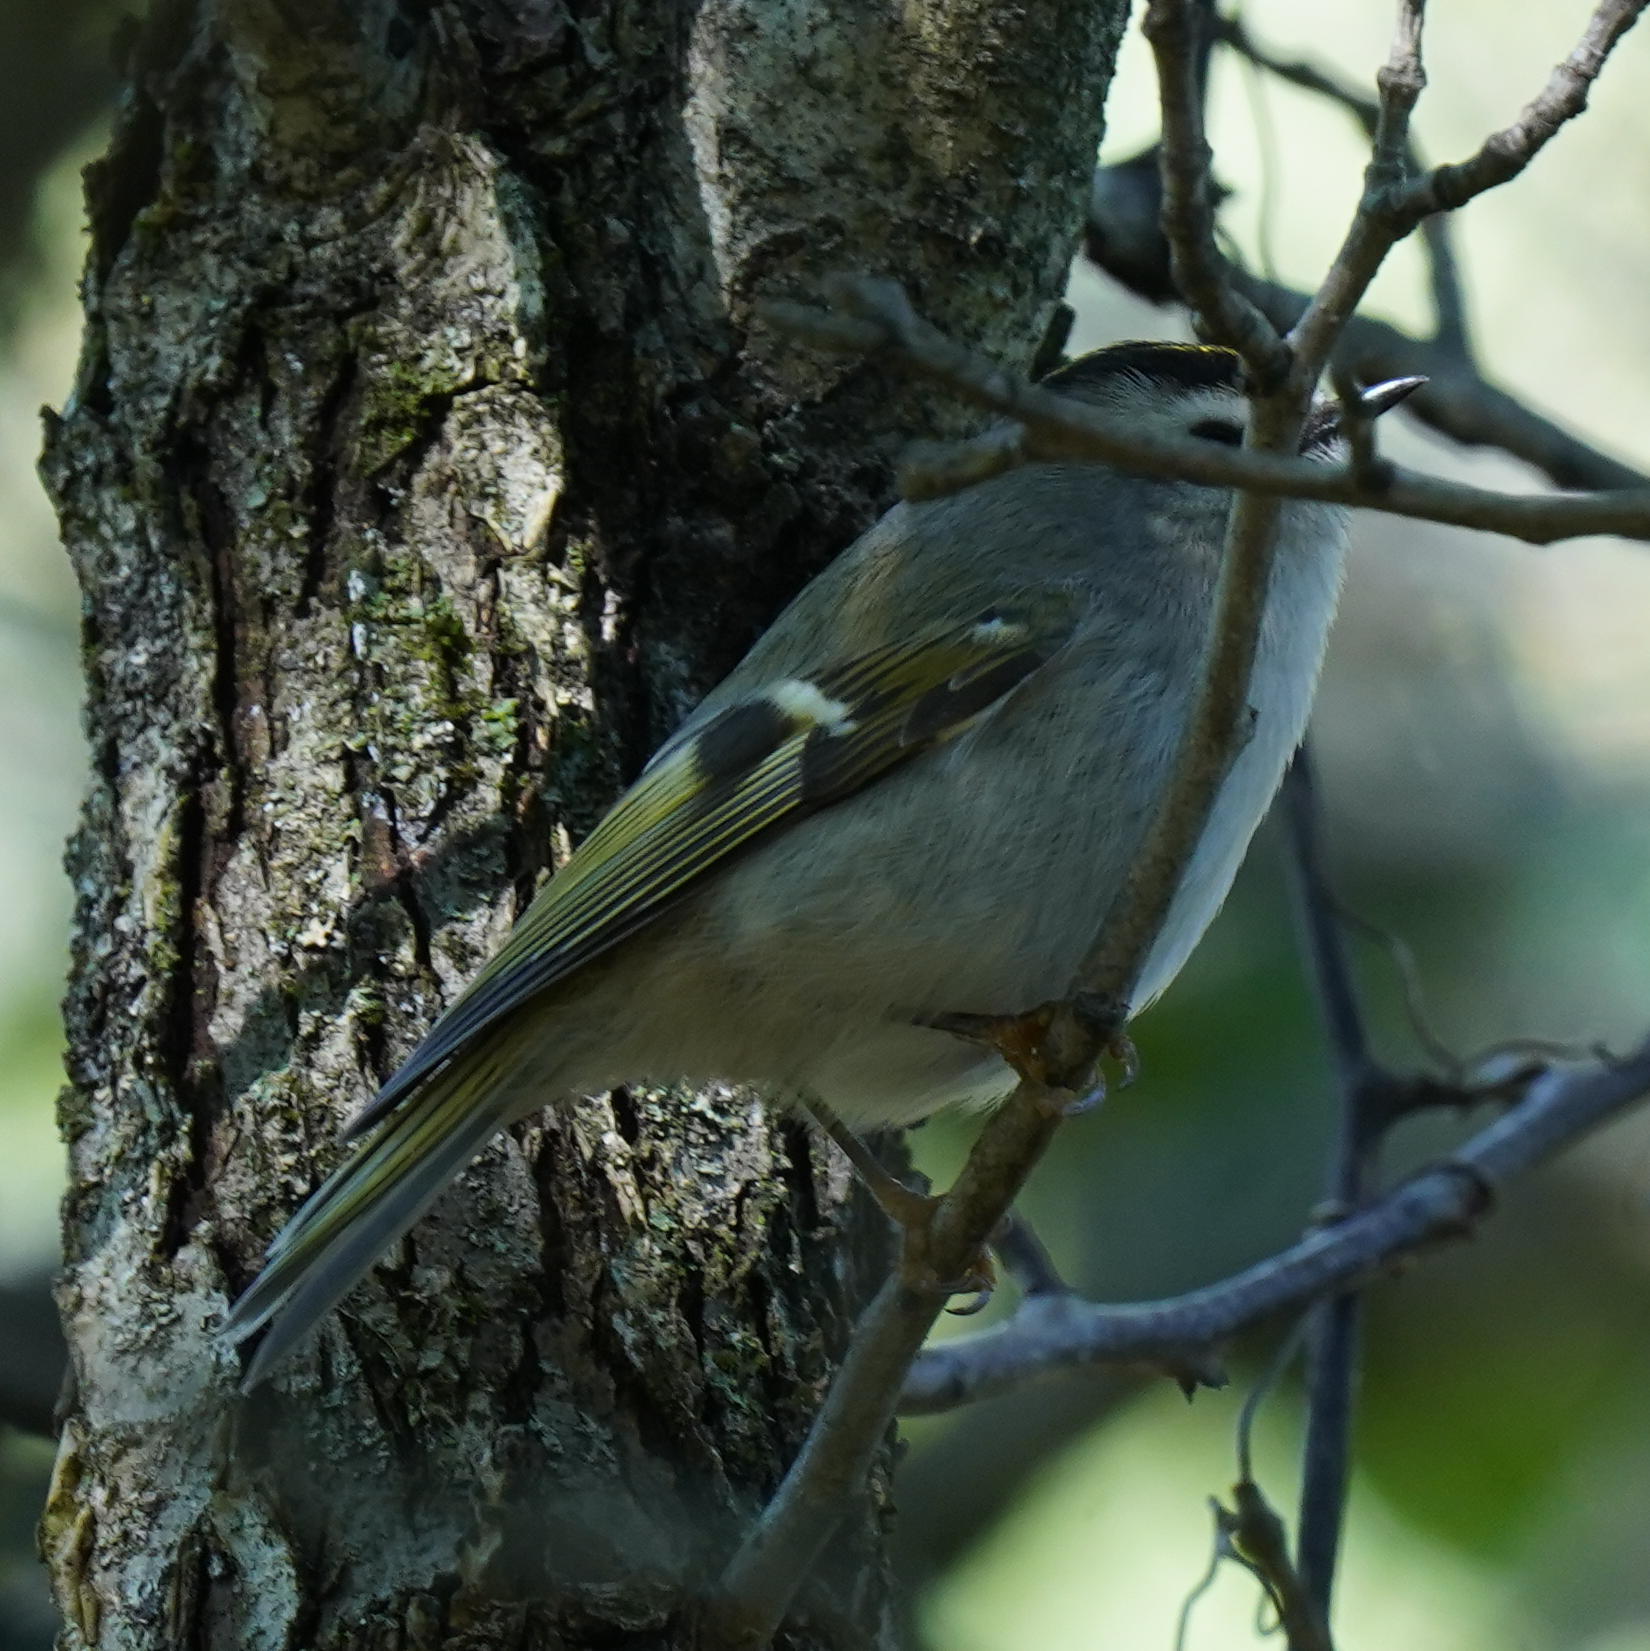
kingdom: Animalia
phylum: Chordata
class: Aves
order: Passeriformes
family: Regulidae
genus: Regulus
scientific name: Regulus satrapa
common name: Golden-crowned kinglet
